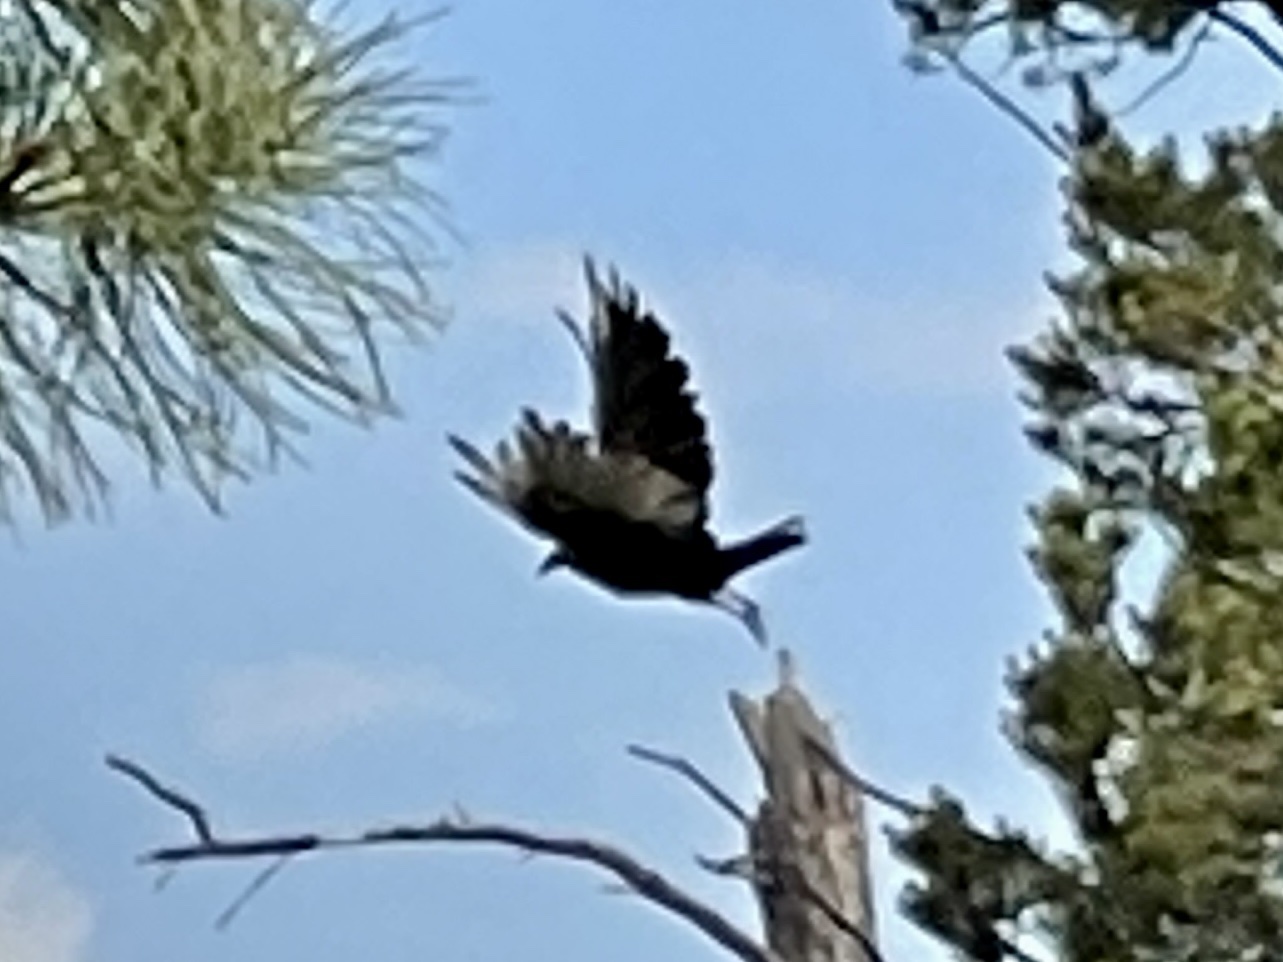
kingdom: Animalia
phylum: Chordata
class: Aves
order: Accipitriformes
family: Cathartidae
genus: Cathartes
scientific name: Cathartes aura
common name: Turkey vulture
